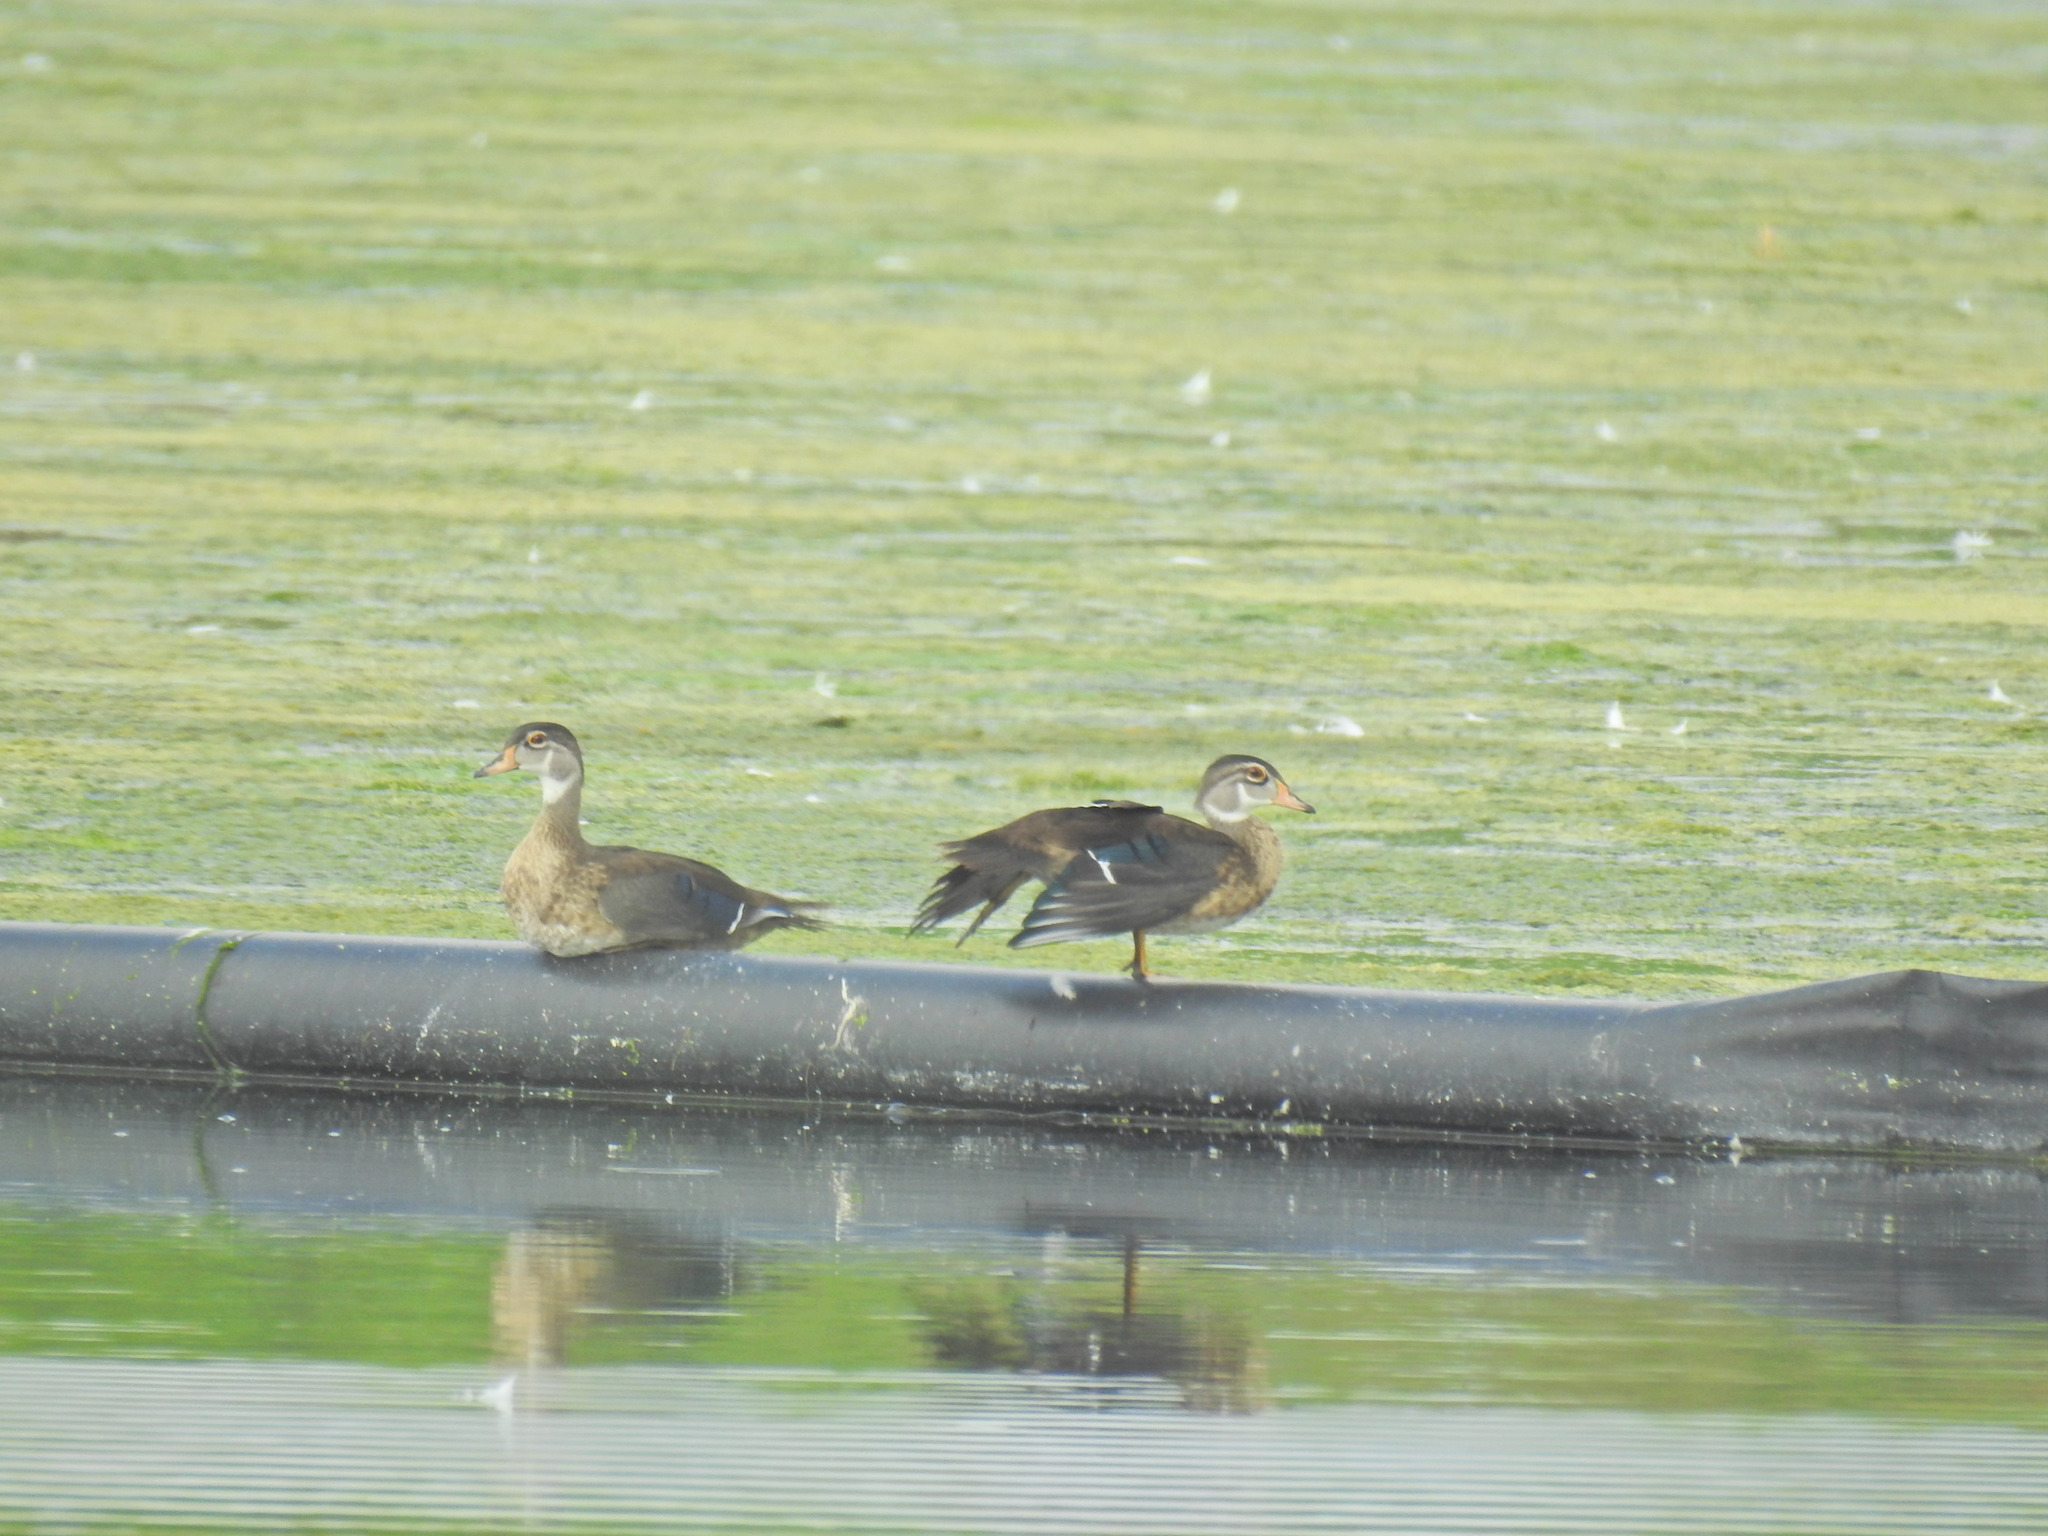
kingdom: Animalia
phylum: Chordata
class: Aves
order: Anseriformes
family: Anatidae
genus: Aix
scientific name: Aix sponsa
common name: Wood duck
